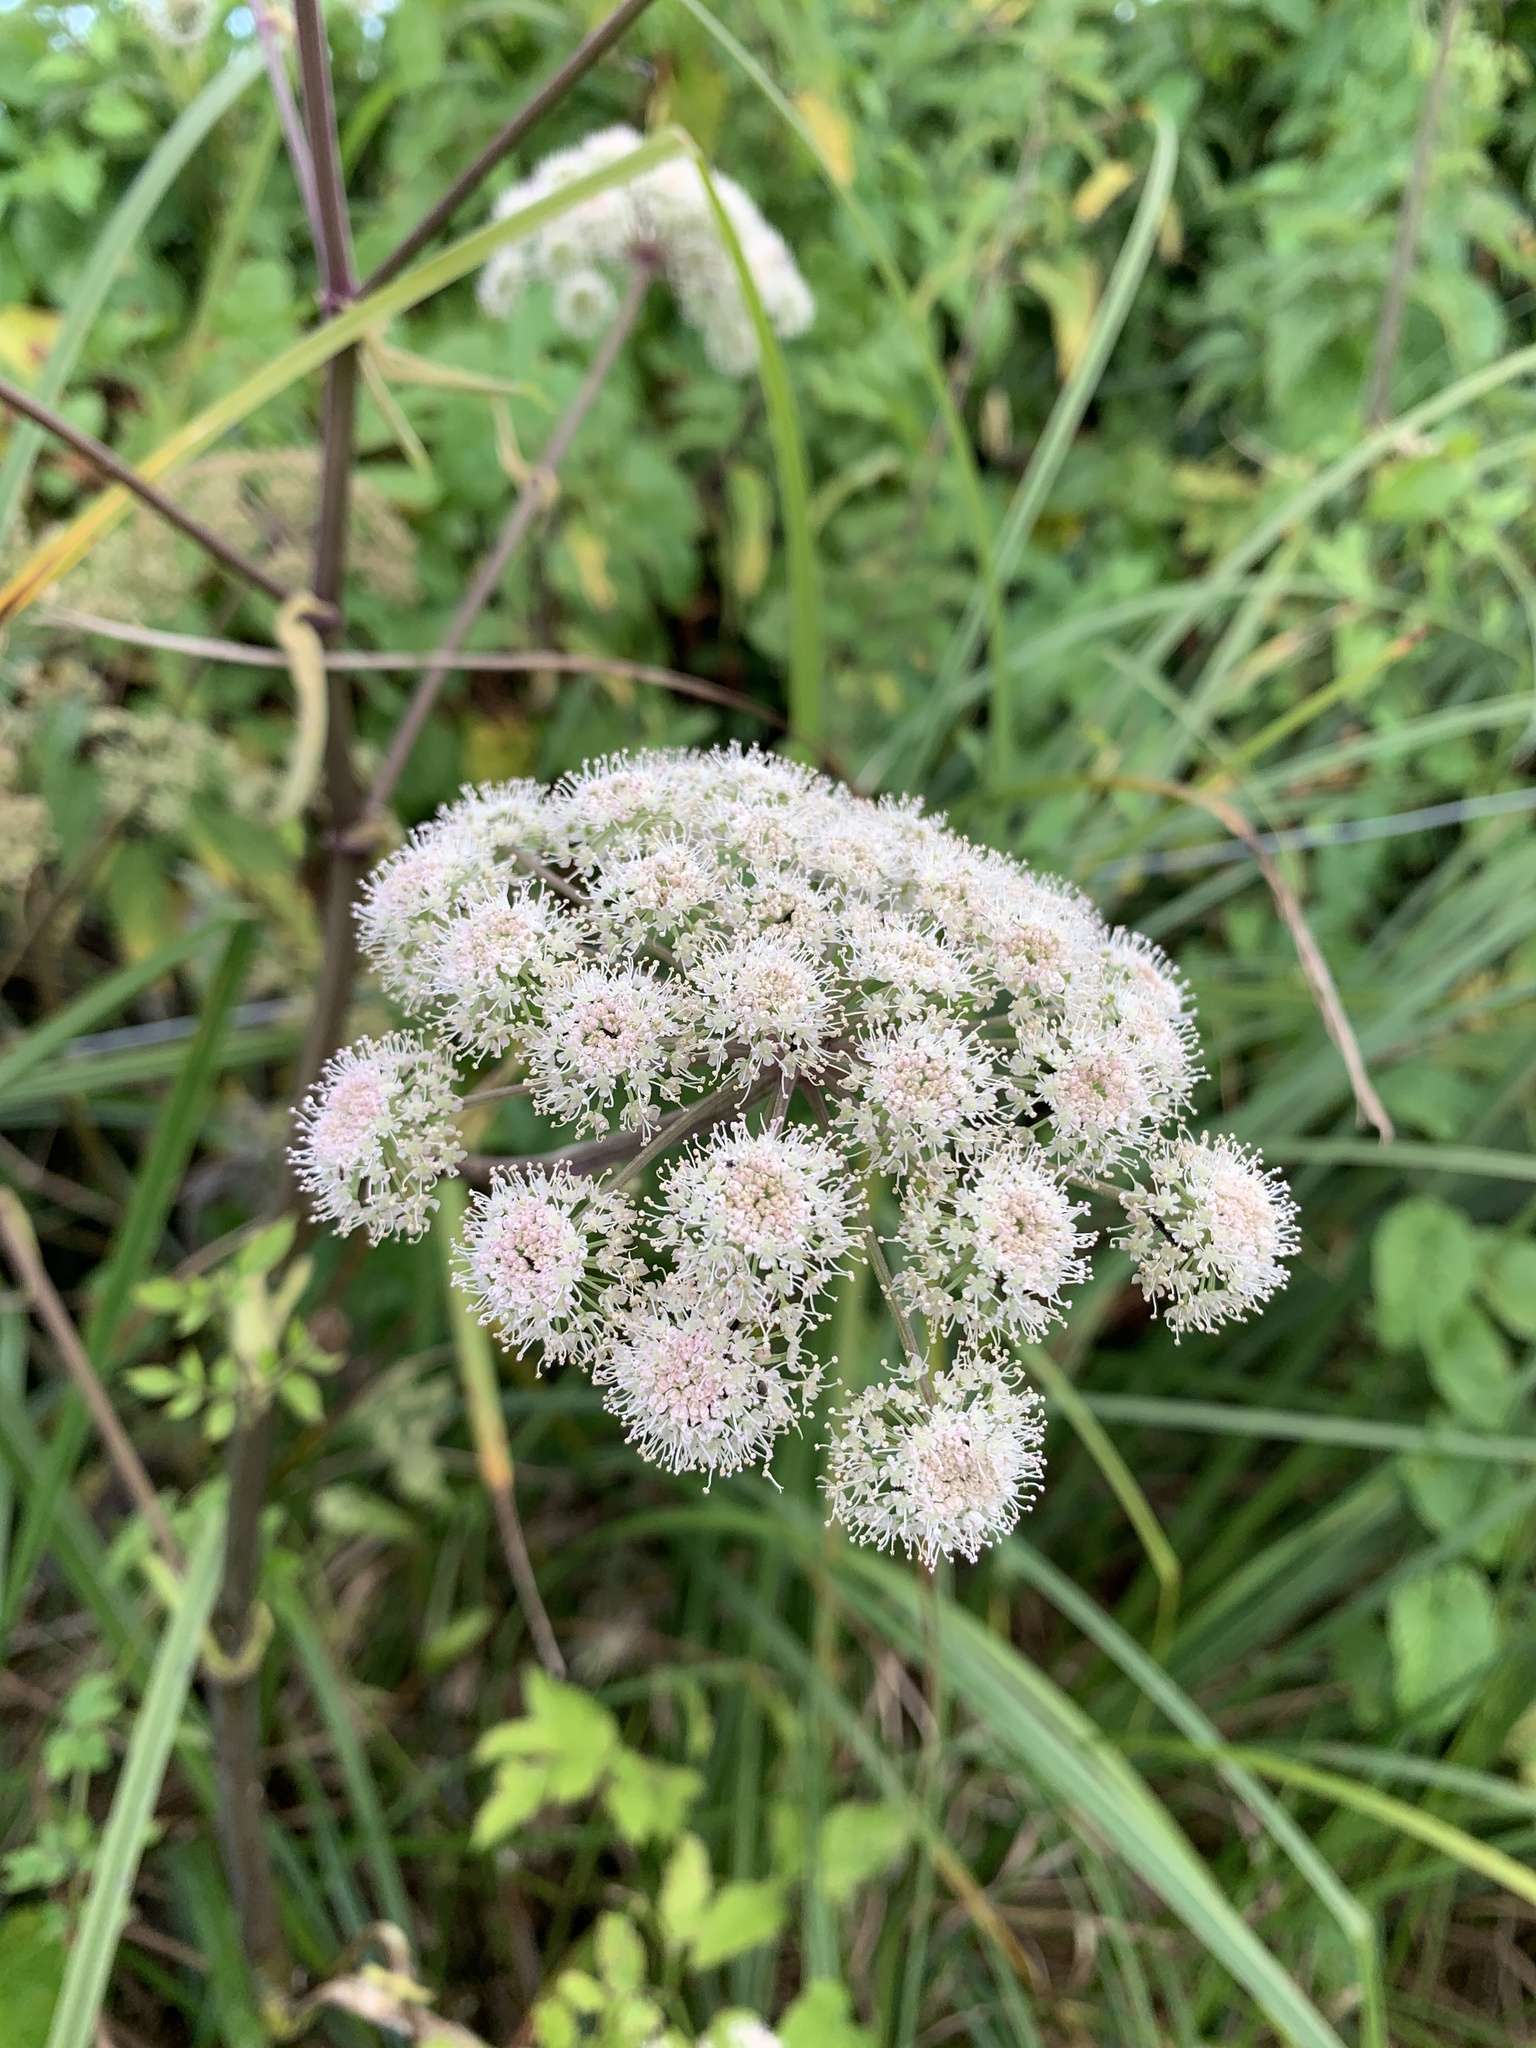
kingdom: Plantae
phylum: Tracheophyta
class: Magnoliopsida
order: Apiales
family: Apiaceae
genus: Angelica
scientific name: Angelica sylvestris
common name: Wild angelica
